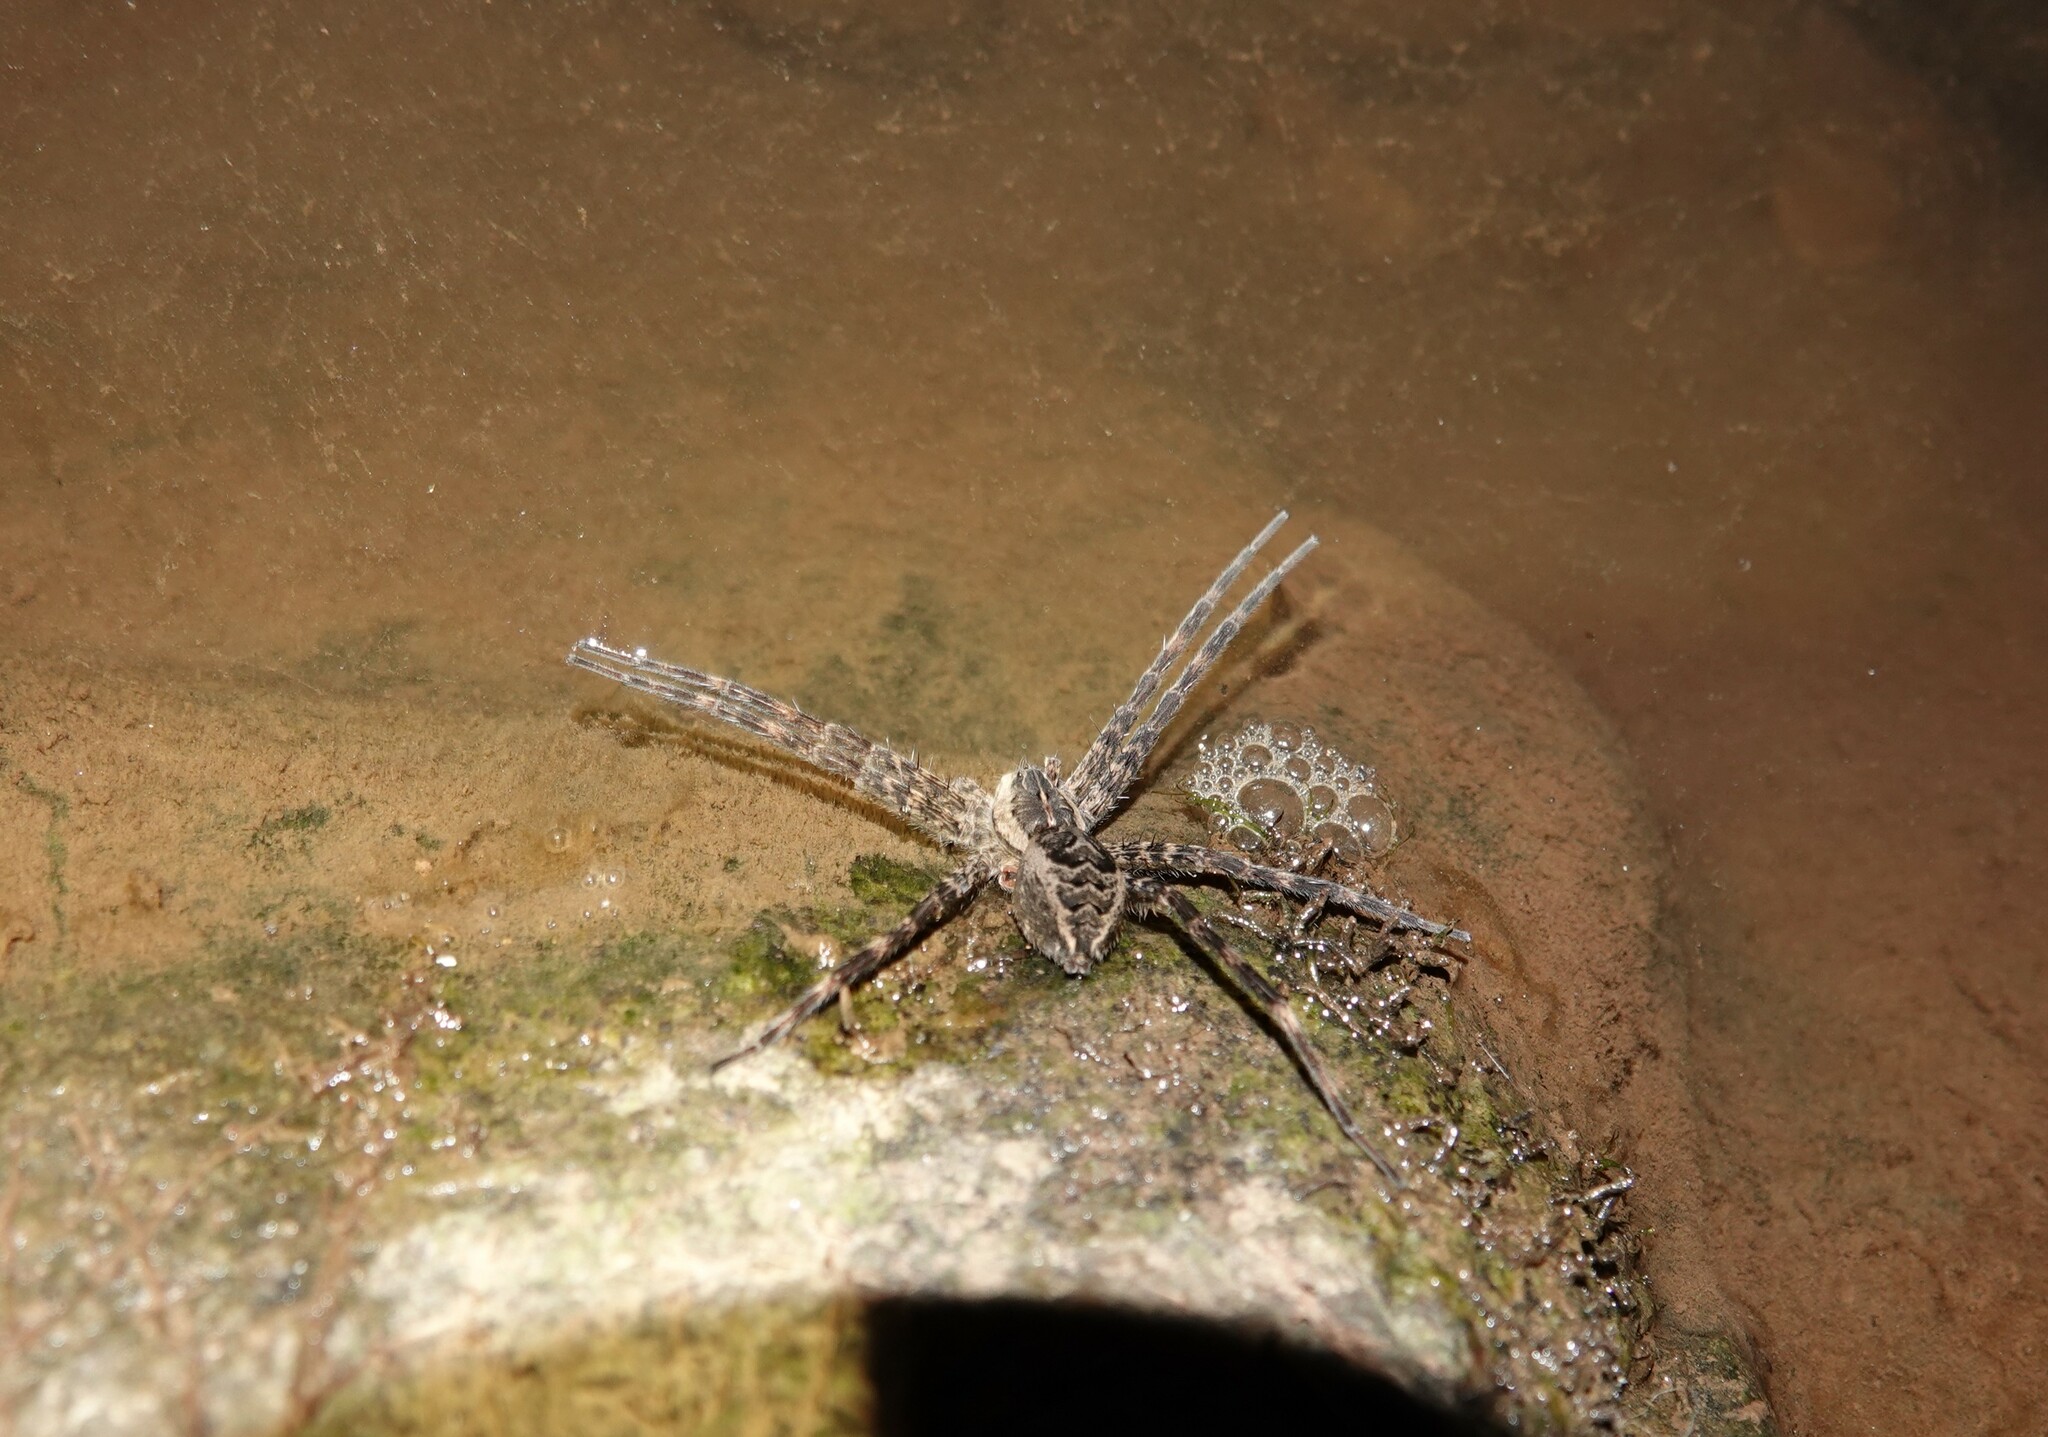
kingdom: Animalia
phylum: Arthropoda
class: Arachnida
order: Araneae
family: Pisauridae
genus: Dolomedes
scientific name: Dolomedes scriptus
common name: Striped fishing spider
